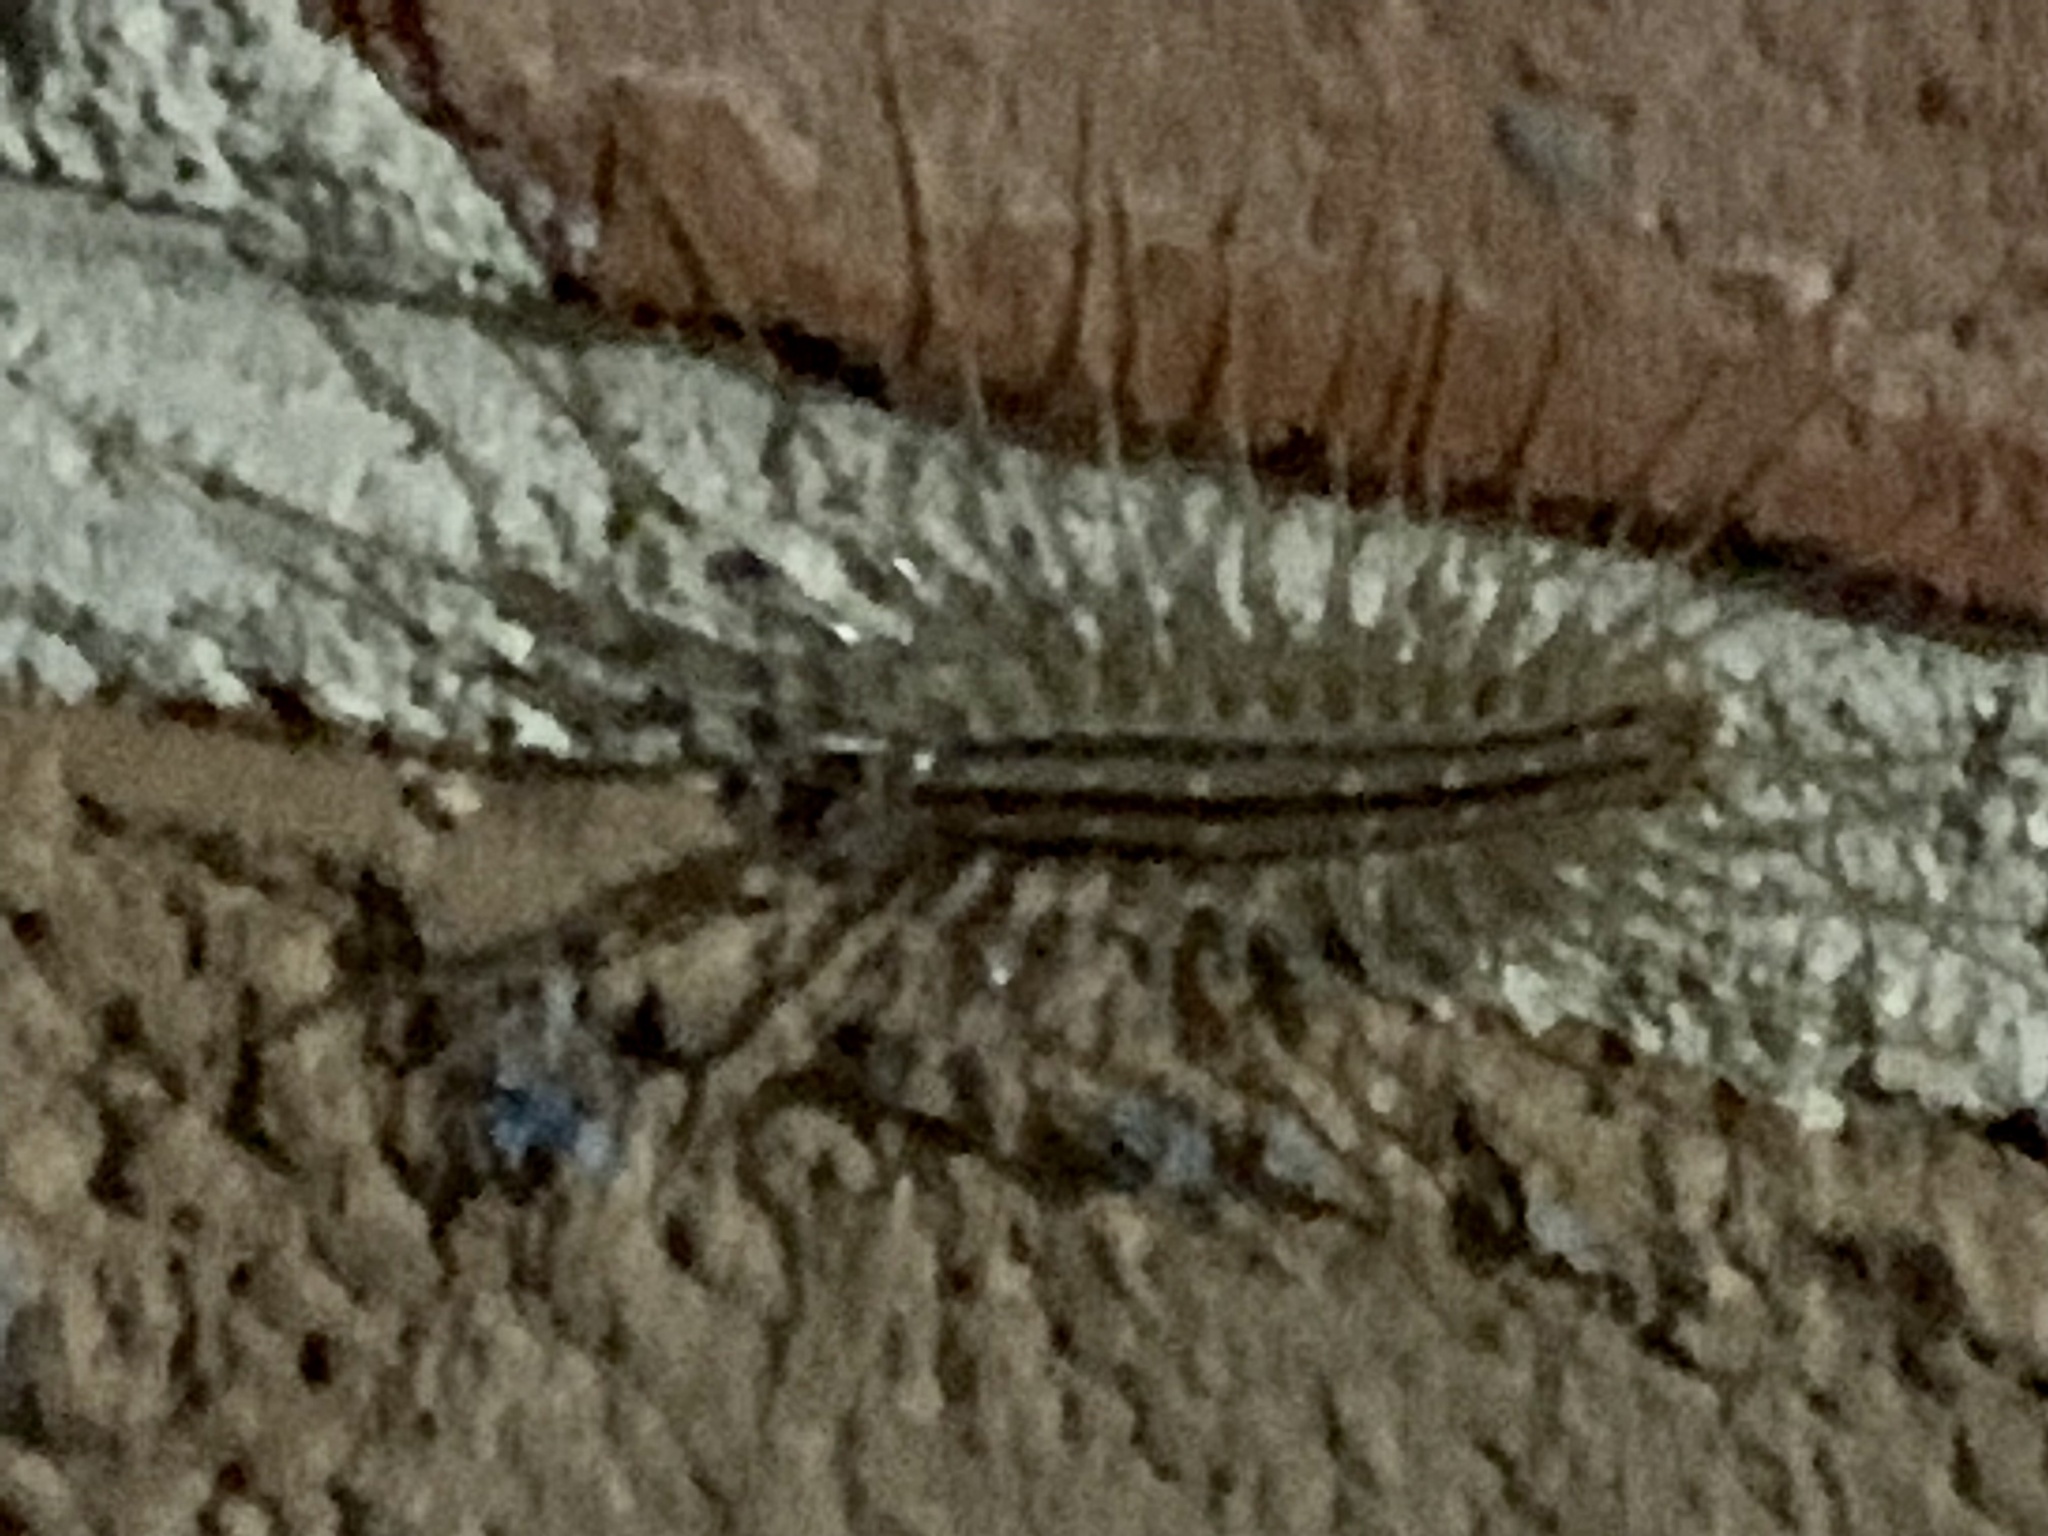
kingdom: Animalia
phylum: Arthropoda
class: Chilopoda
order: Scutigeromorpha
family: Scutigeridae
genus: Scutigera
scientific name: Scutigera coleoptrata
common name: House centipede
